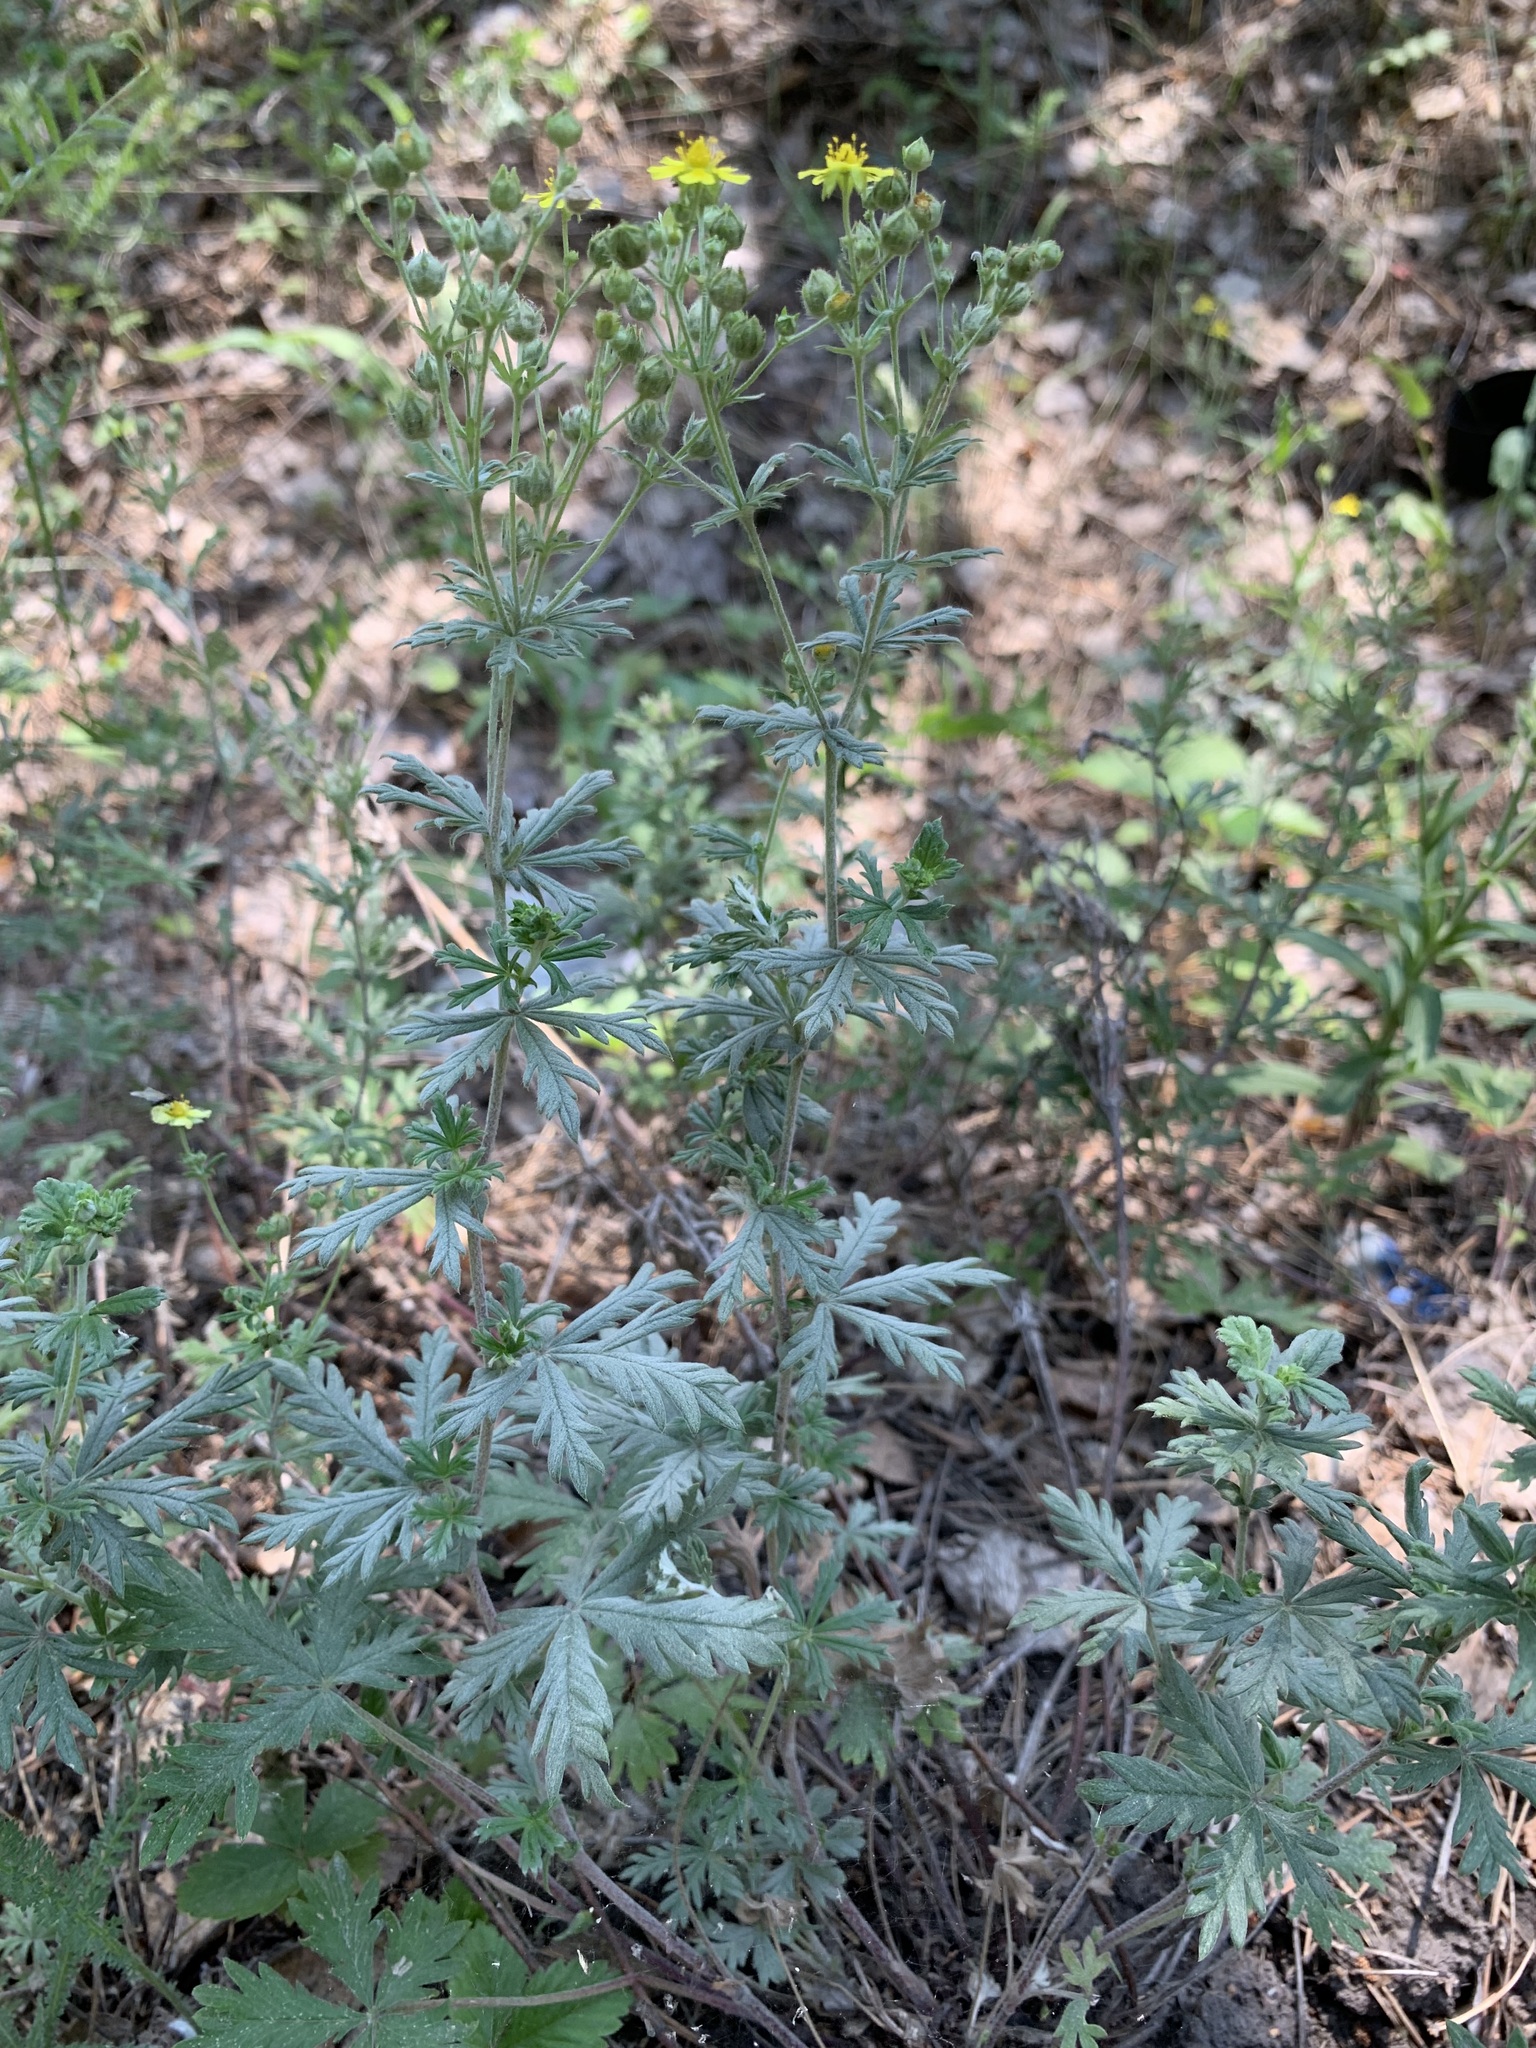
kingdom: Plantae
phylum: Tracheophyta
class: Magnoliopsida
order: Rosales
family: Rosaceae
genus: Potentilla
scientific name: Potentilla argentea
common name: Hoary cinquefoil
